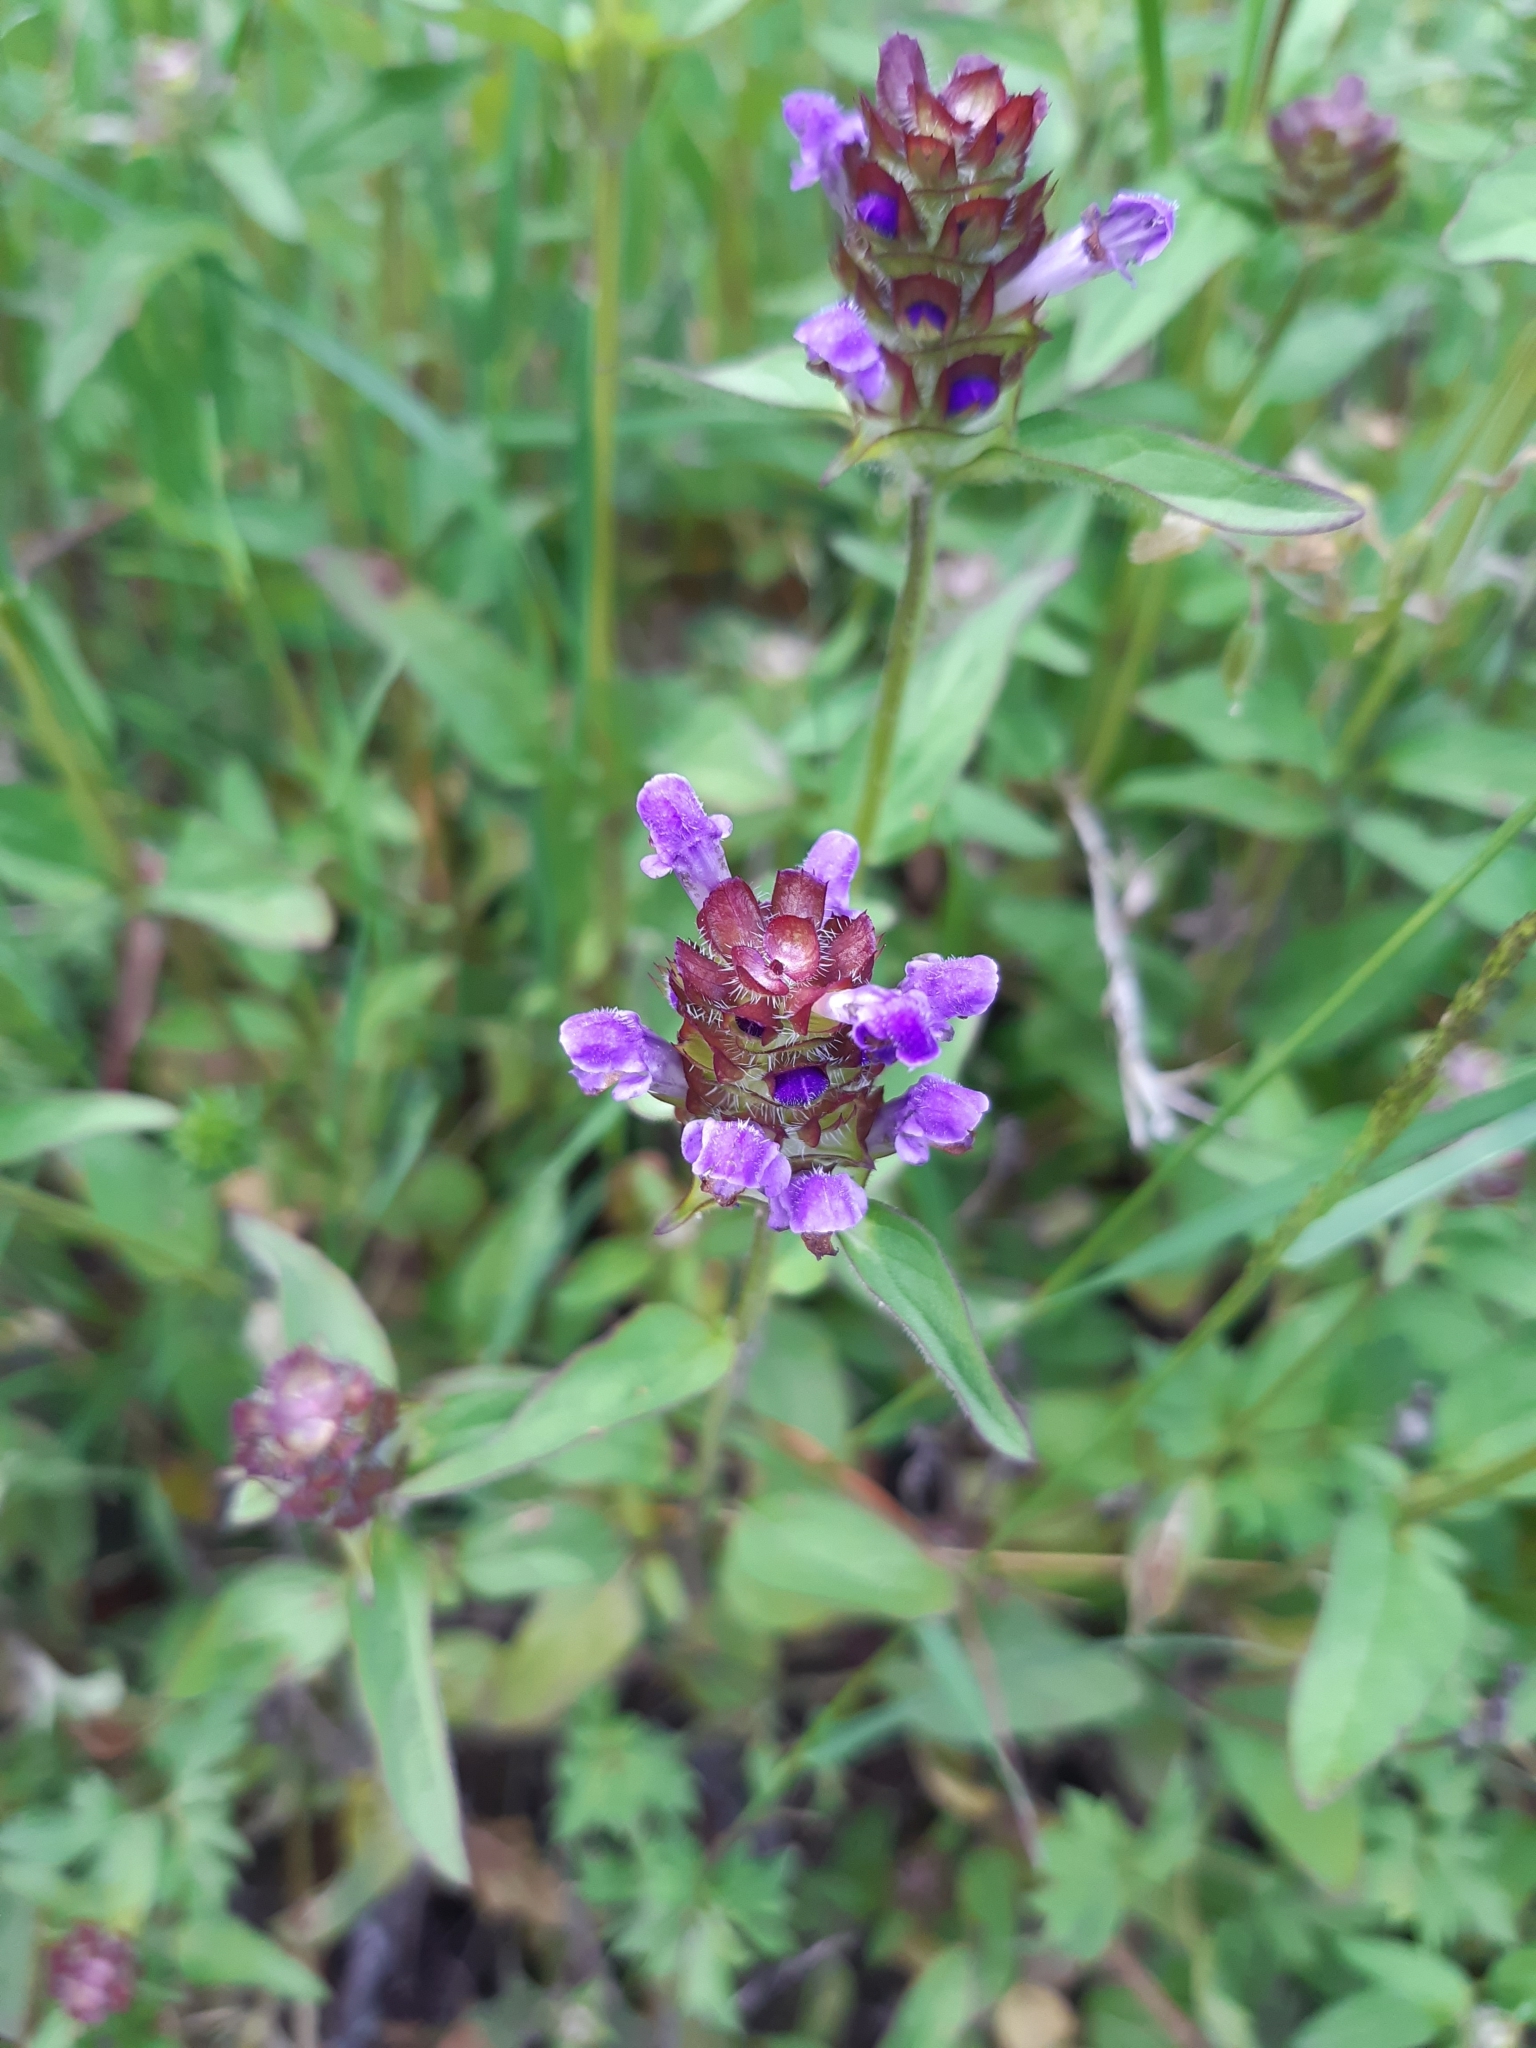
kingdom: Plantae
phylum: Tracheophyta
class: Magnoliopsida
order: Lamiales
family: Lamiaceae
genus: Prunella
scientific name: Prunella vulgaris
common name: Heal-all
